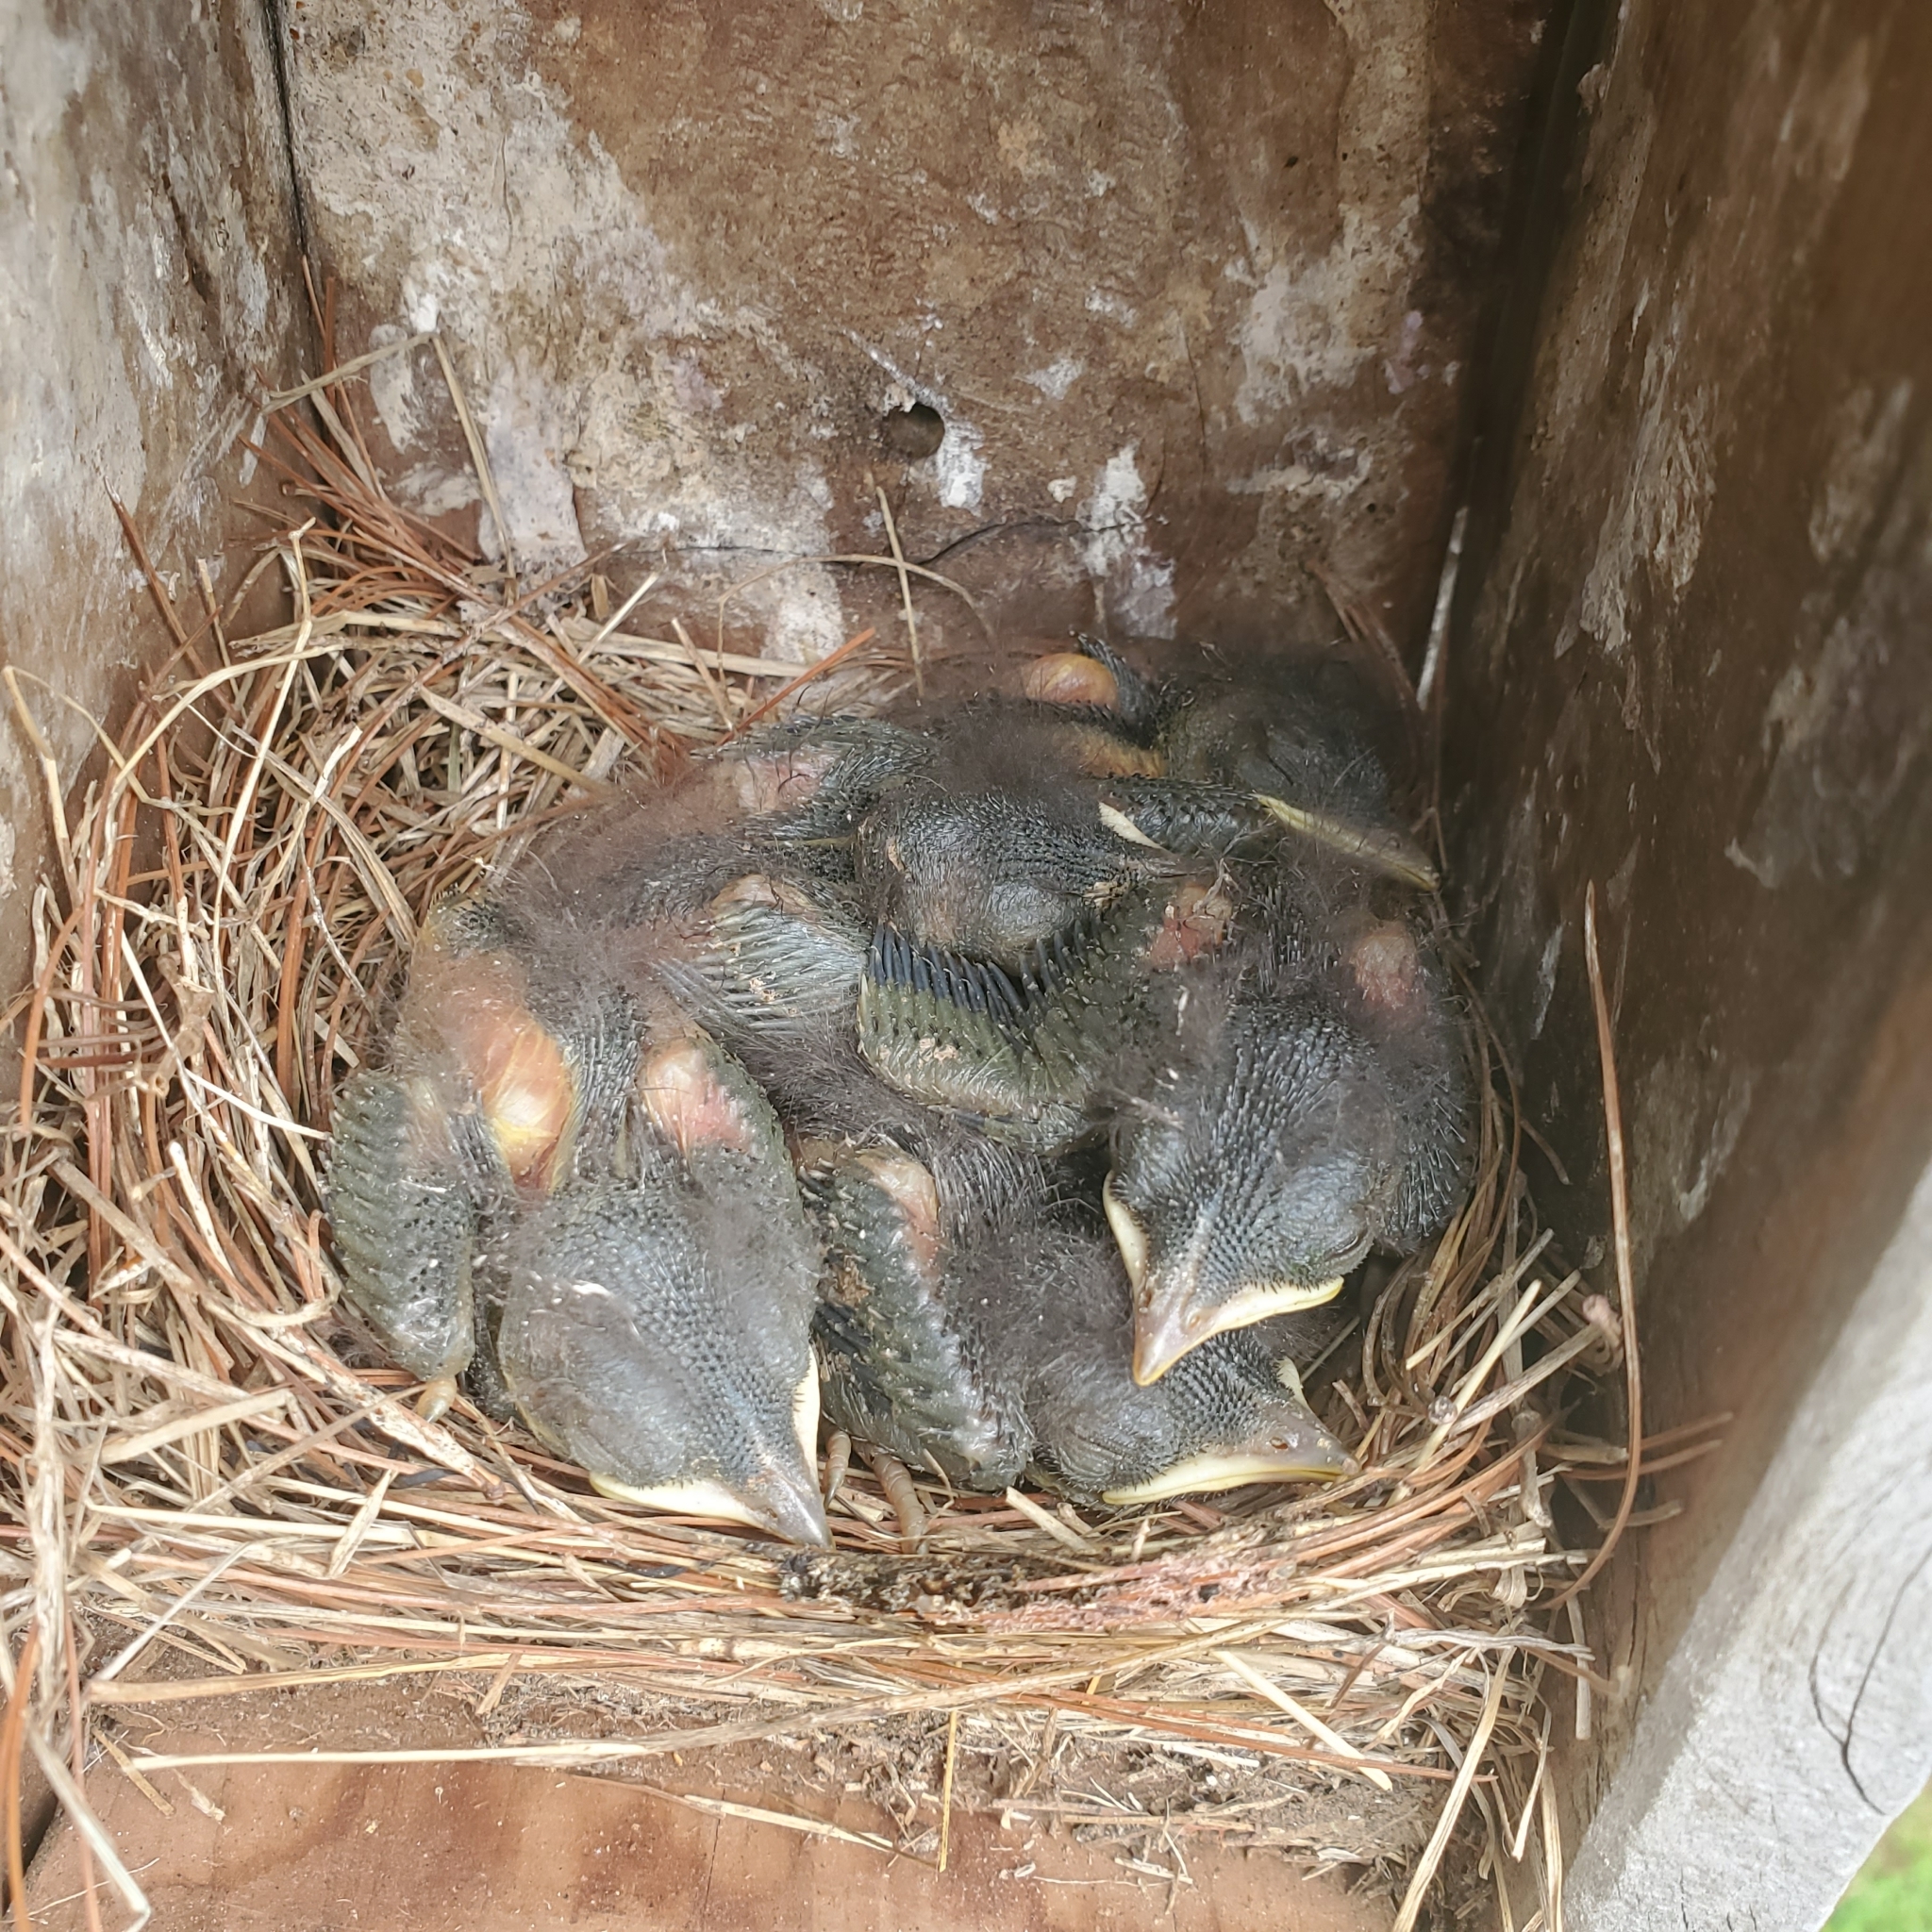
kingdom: Animalia
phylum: Chordata
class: Aves
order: Passeriformes
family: Turdidae
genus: Sialia
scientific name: Sialia sialis
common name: Eastern bluebird
